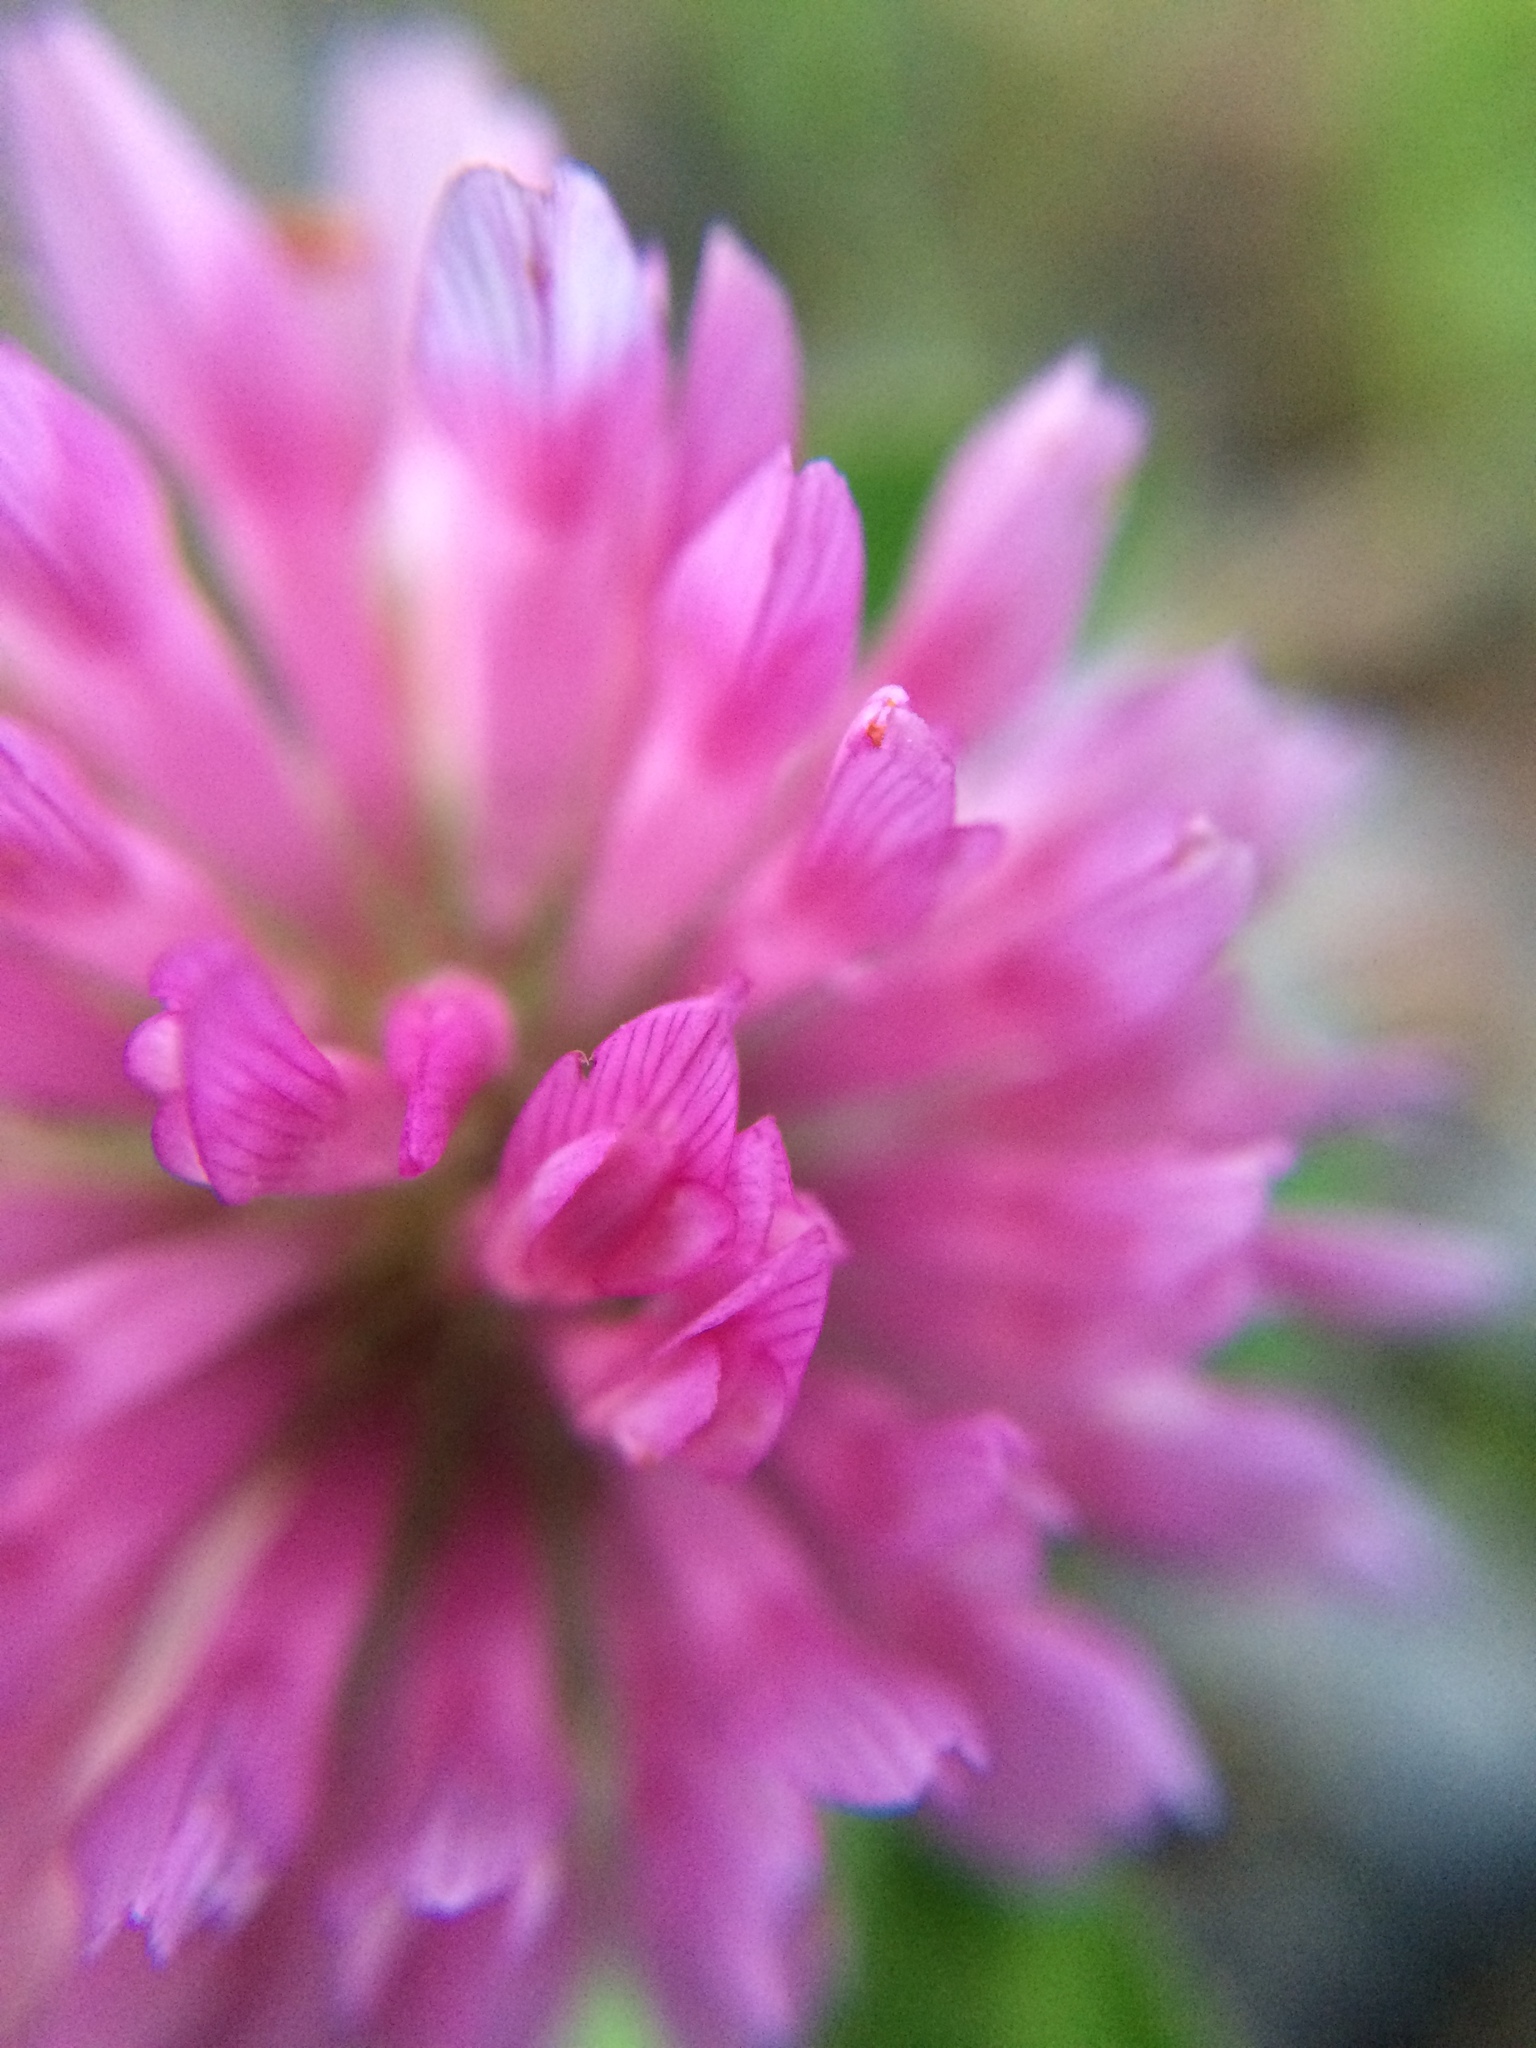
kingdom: Plantae
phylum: Tracheophyta
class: Magnoliopsida
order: Fabales
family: Fabaceae
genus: Trifolium
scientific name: Trifolium pratense
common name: Red clover
